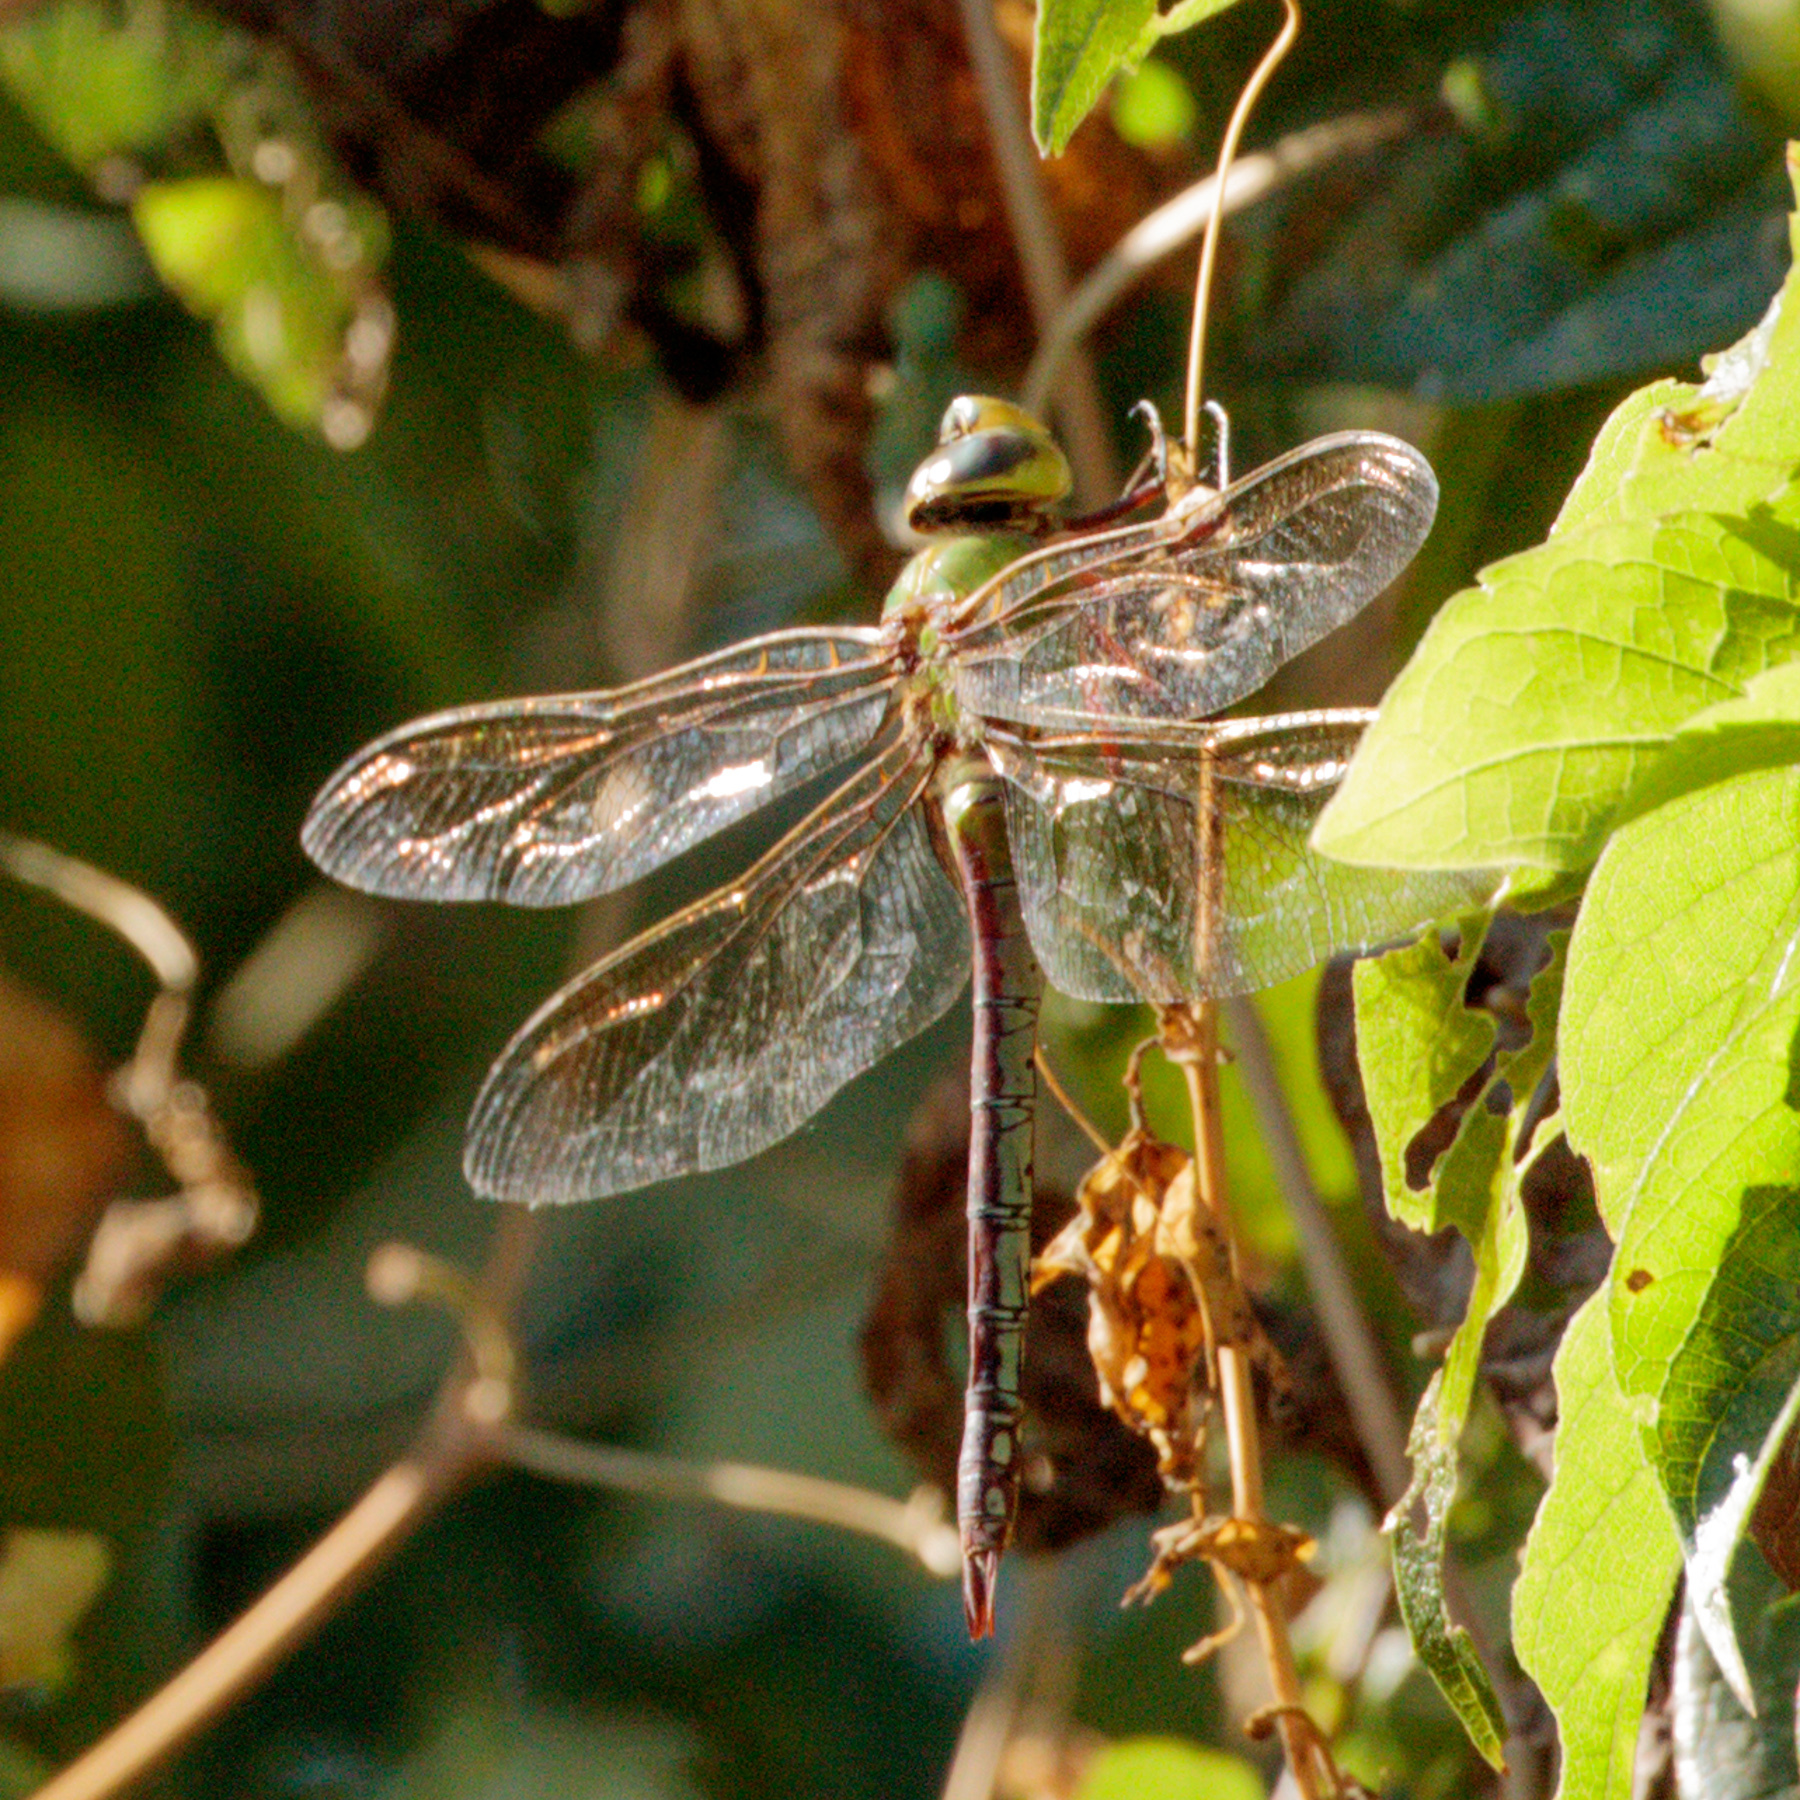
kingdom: Animalia
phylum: Arthropoda
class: Insecta
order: Odonata
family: Aeshnidae
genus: Anax
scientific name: Anax junius
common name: Common green darner
